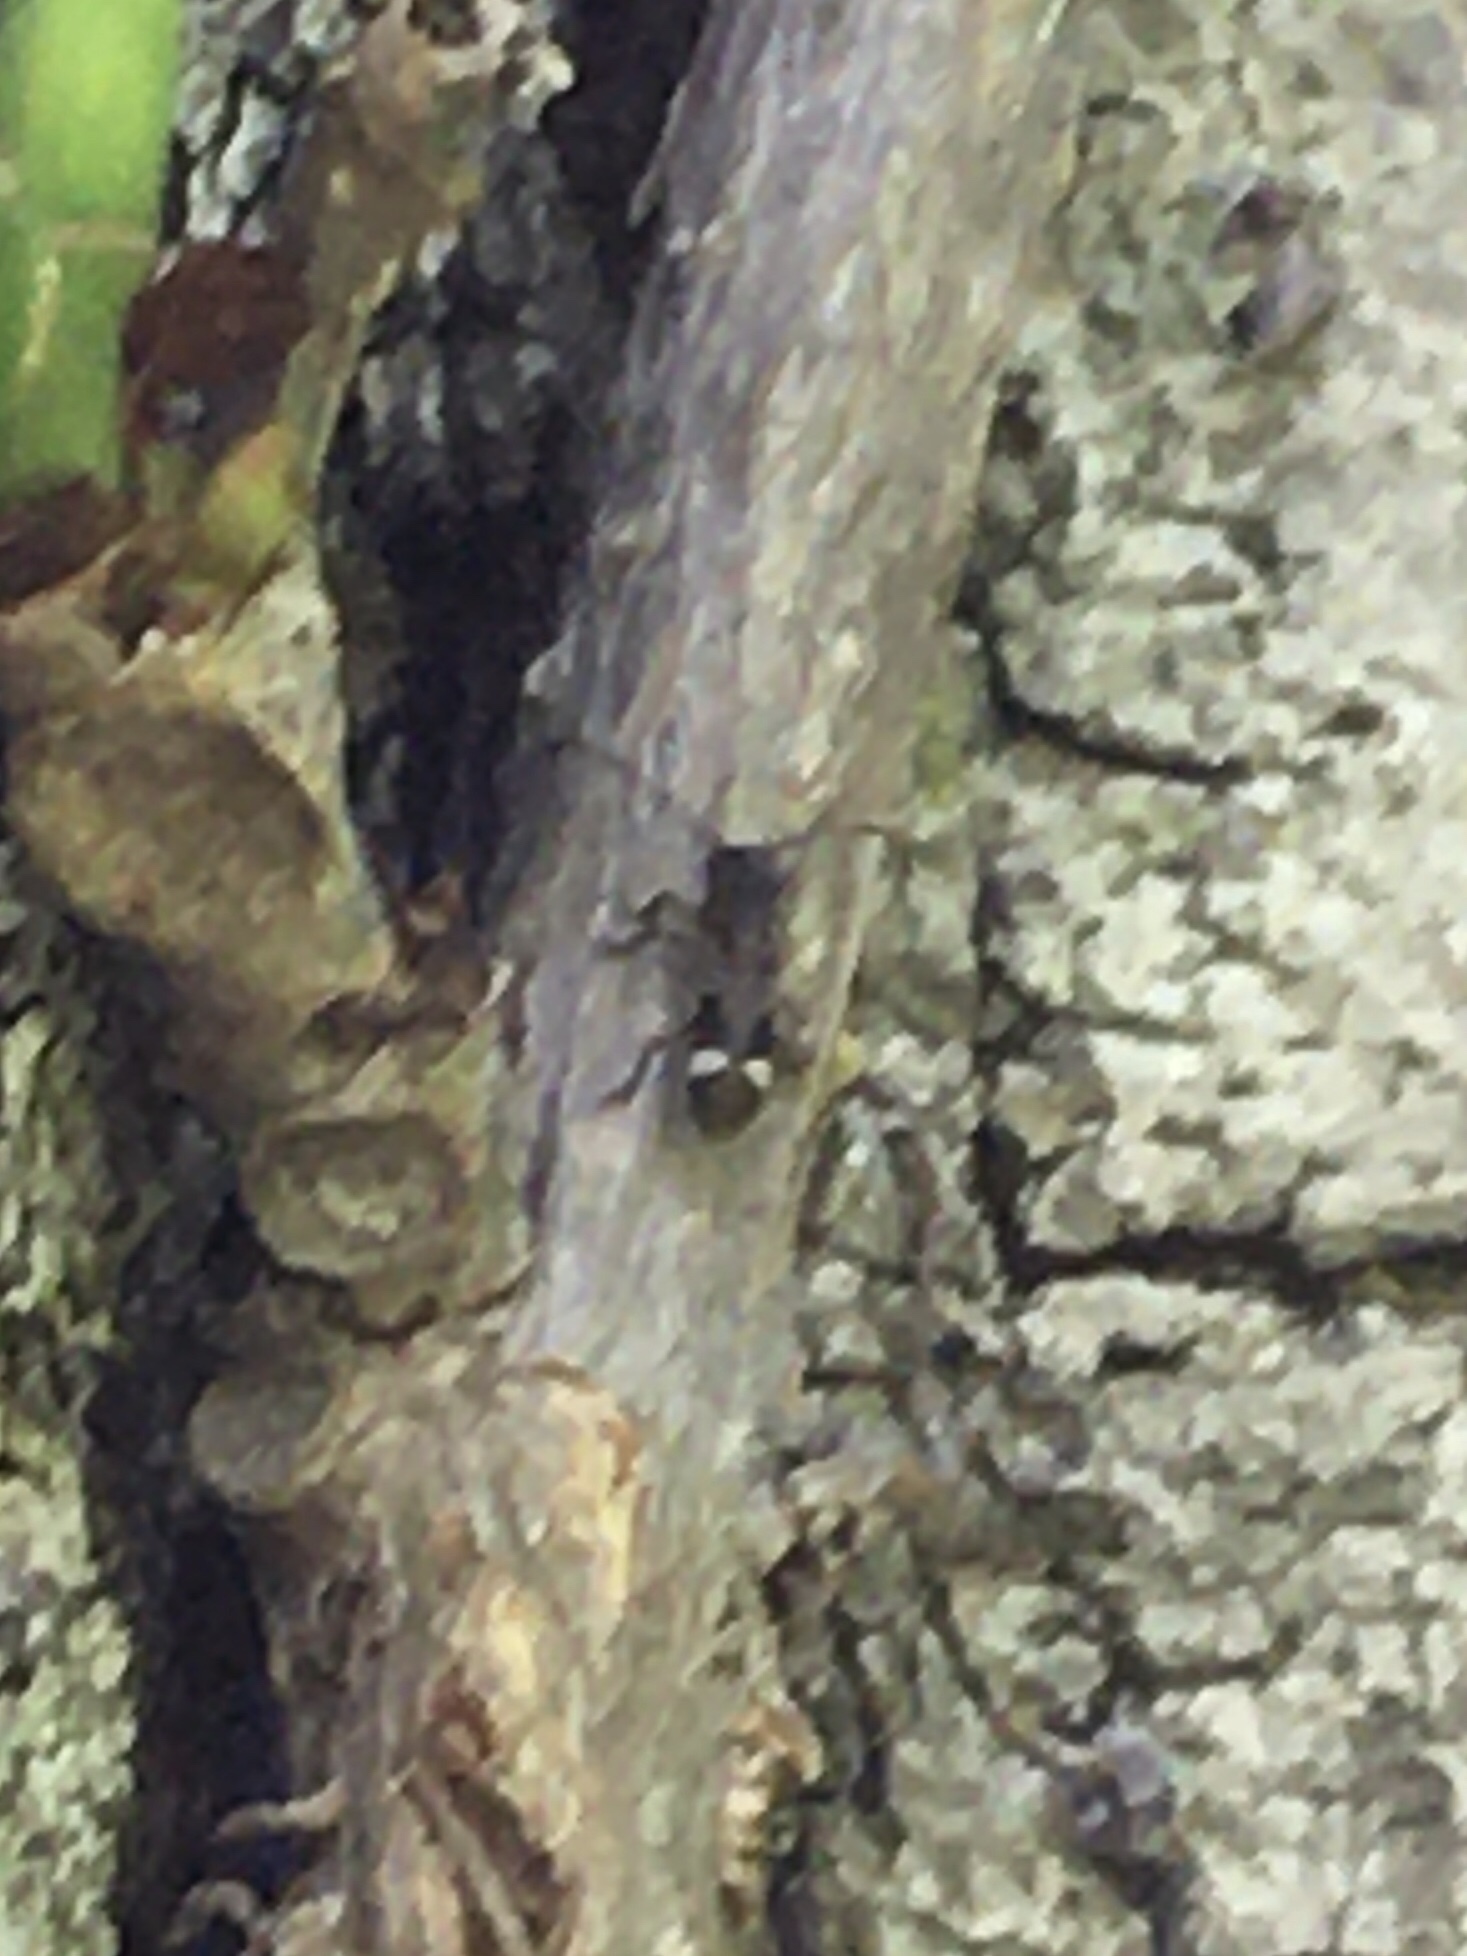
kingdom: Animalia
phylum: Arthropoda
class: Insecta
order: Coleoptera
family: Cerambycidae
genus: Psenocerus
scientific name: Psenocerus supernotatus
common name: Currant-tip borer
